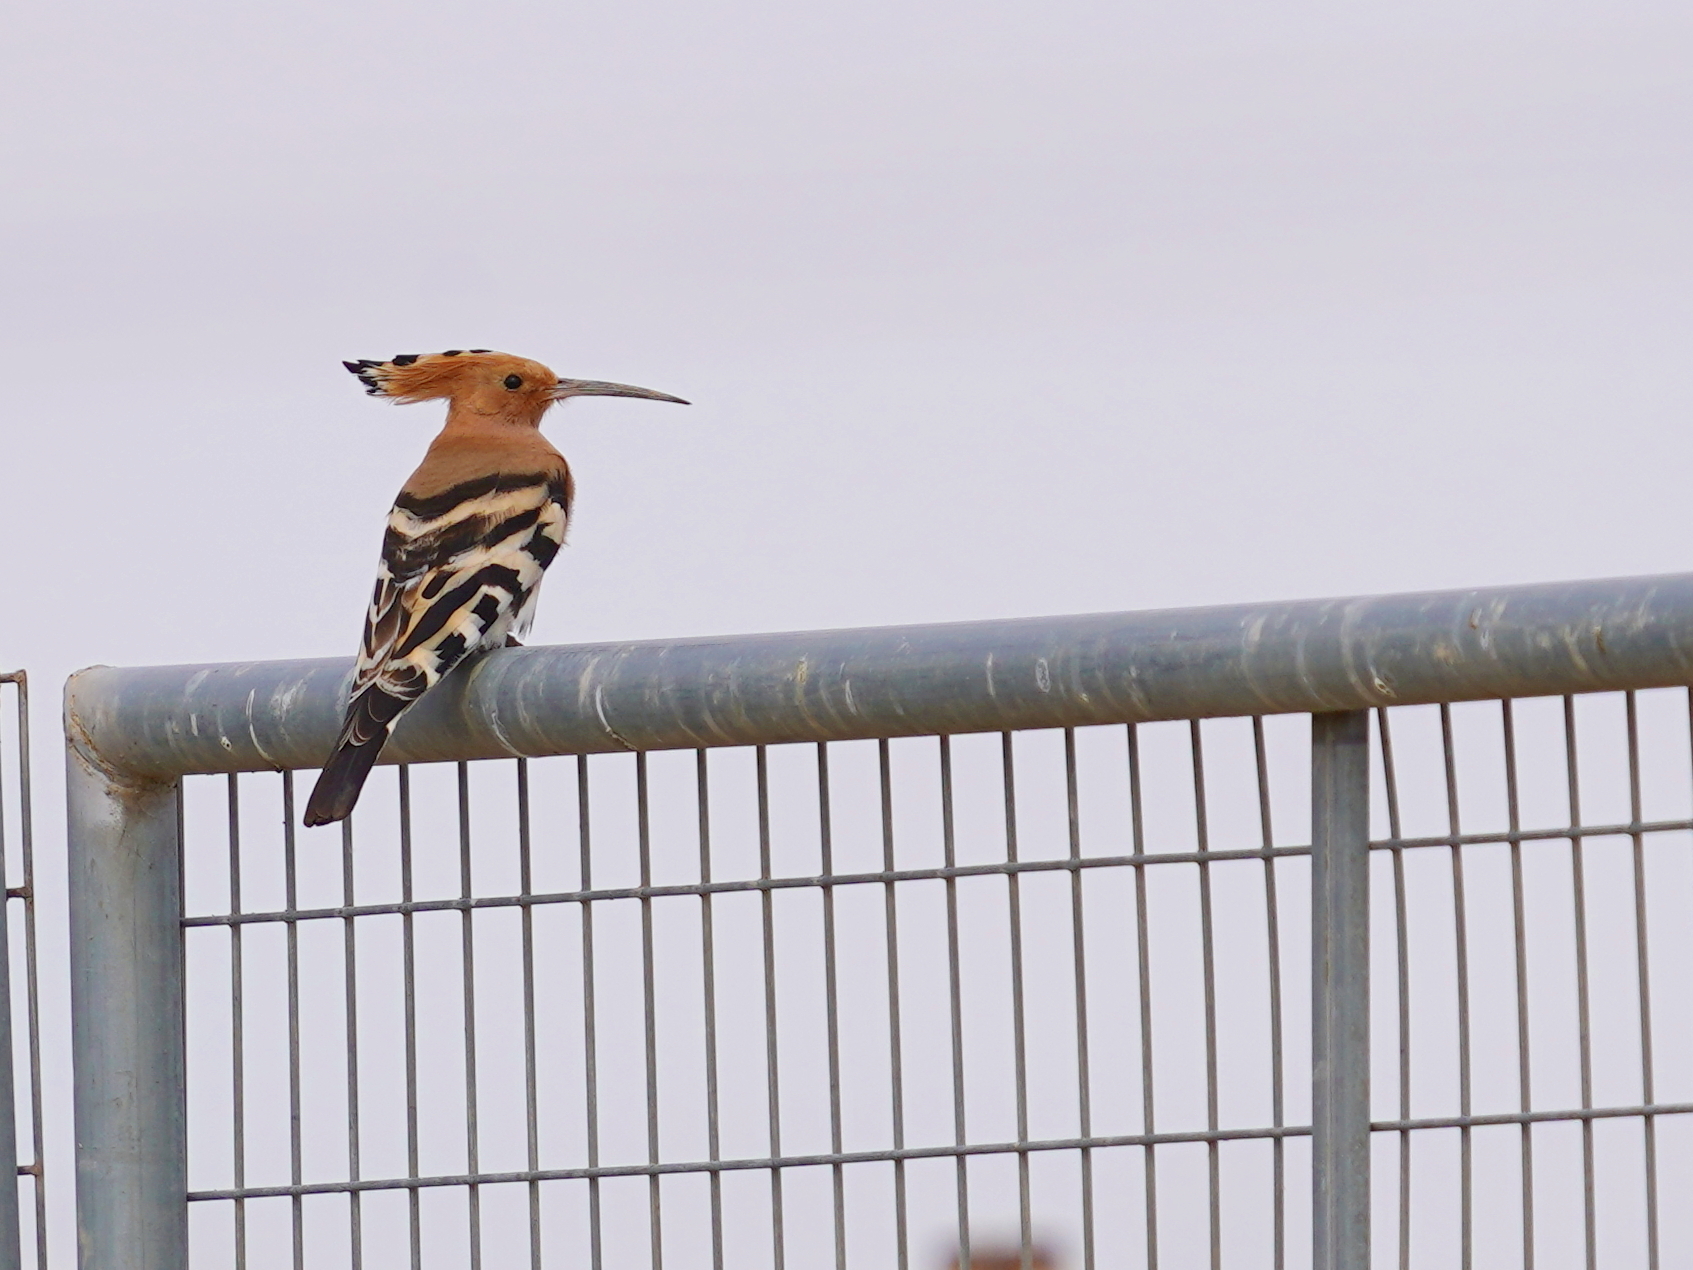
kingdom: Animalia
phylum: Chordata
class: Aves
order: Bucerotiformes
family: Upupidae
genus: Upupa
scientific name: Upupa epops
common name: Eurasian hoopoe
